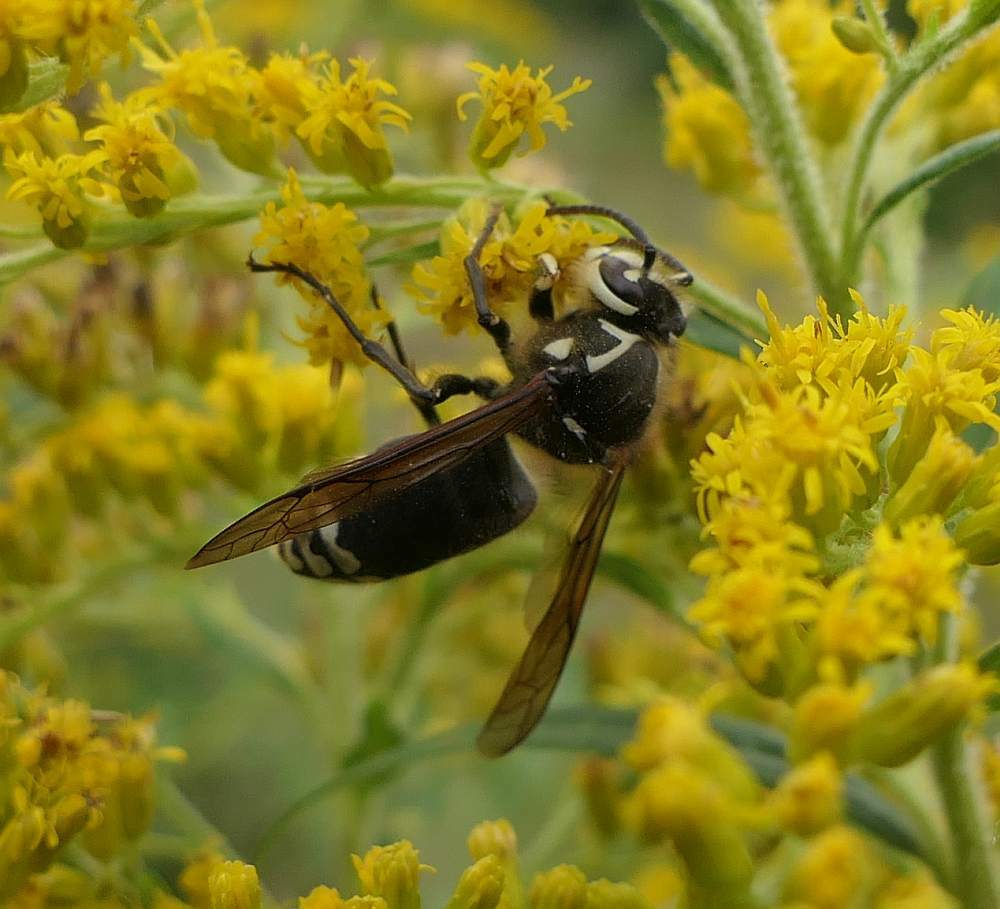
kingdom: Animalia
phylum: Arthropoda
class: Insecta
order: Hymenoptera
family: Vespidae
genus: Dolichovespula
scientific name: Dolichovespula maculata
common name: Bald-faced hornet
